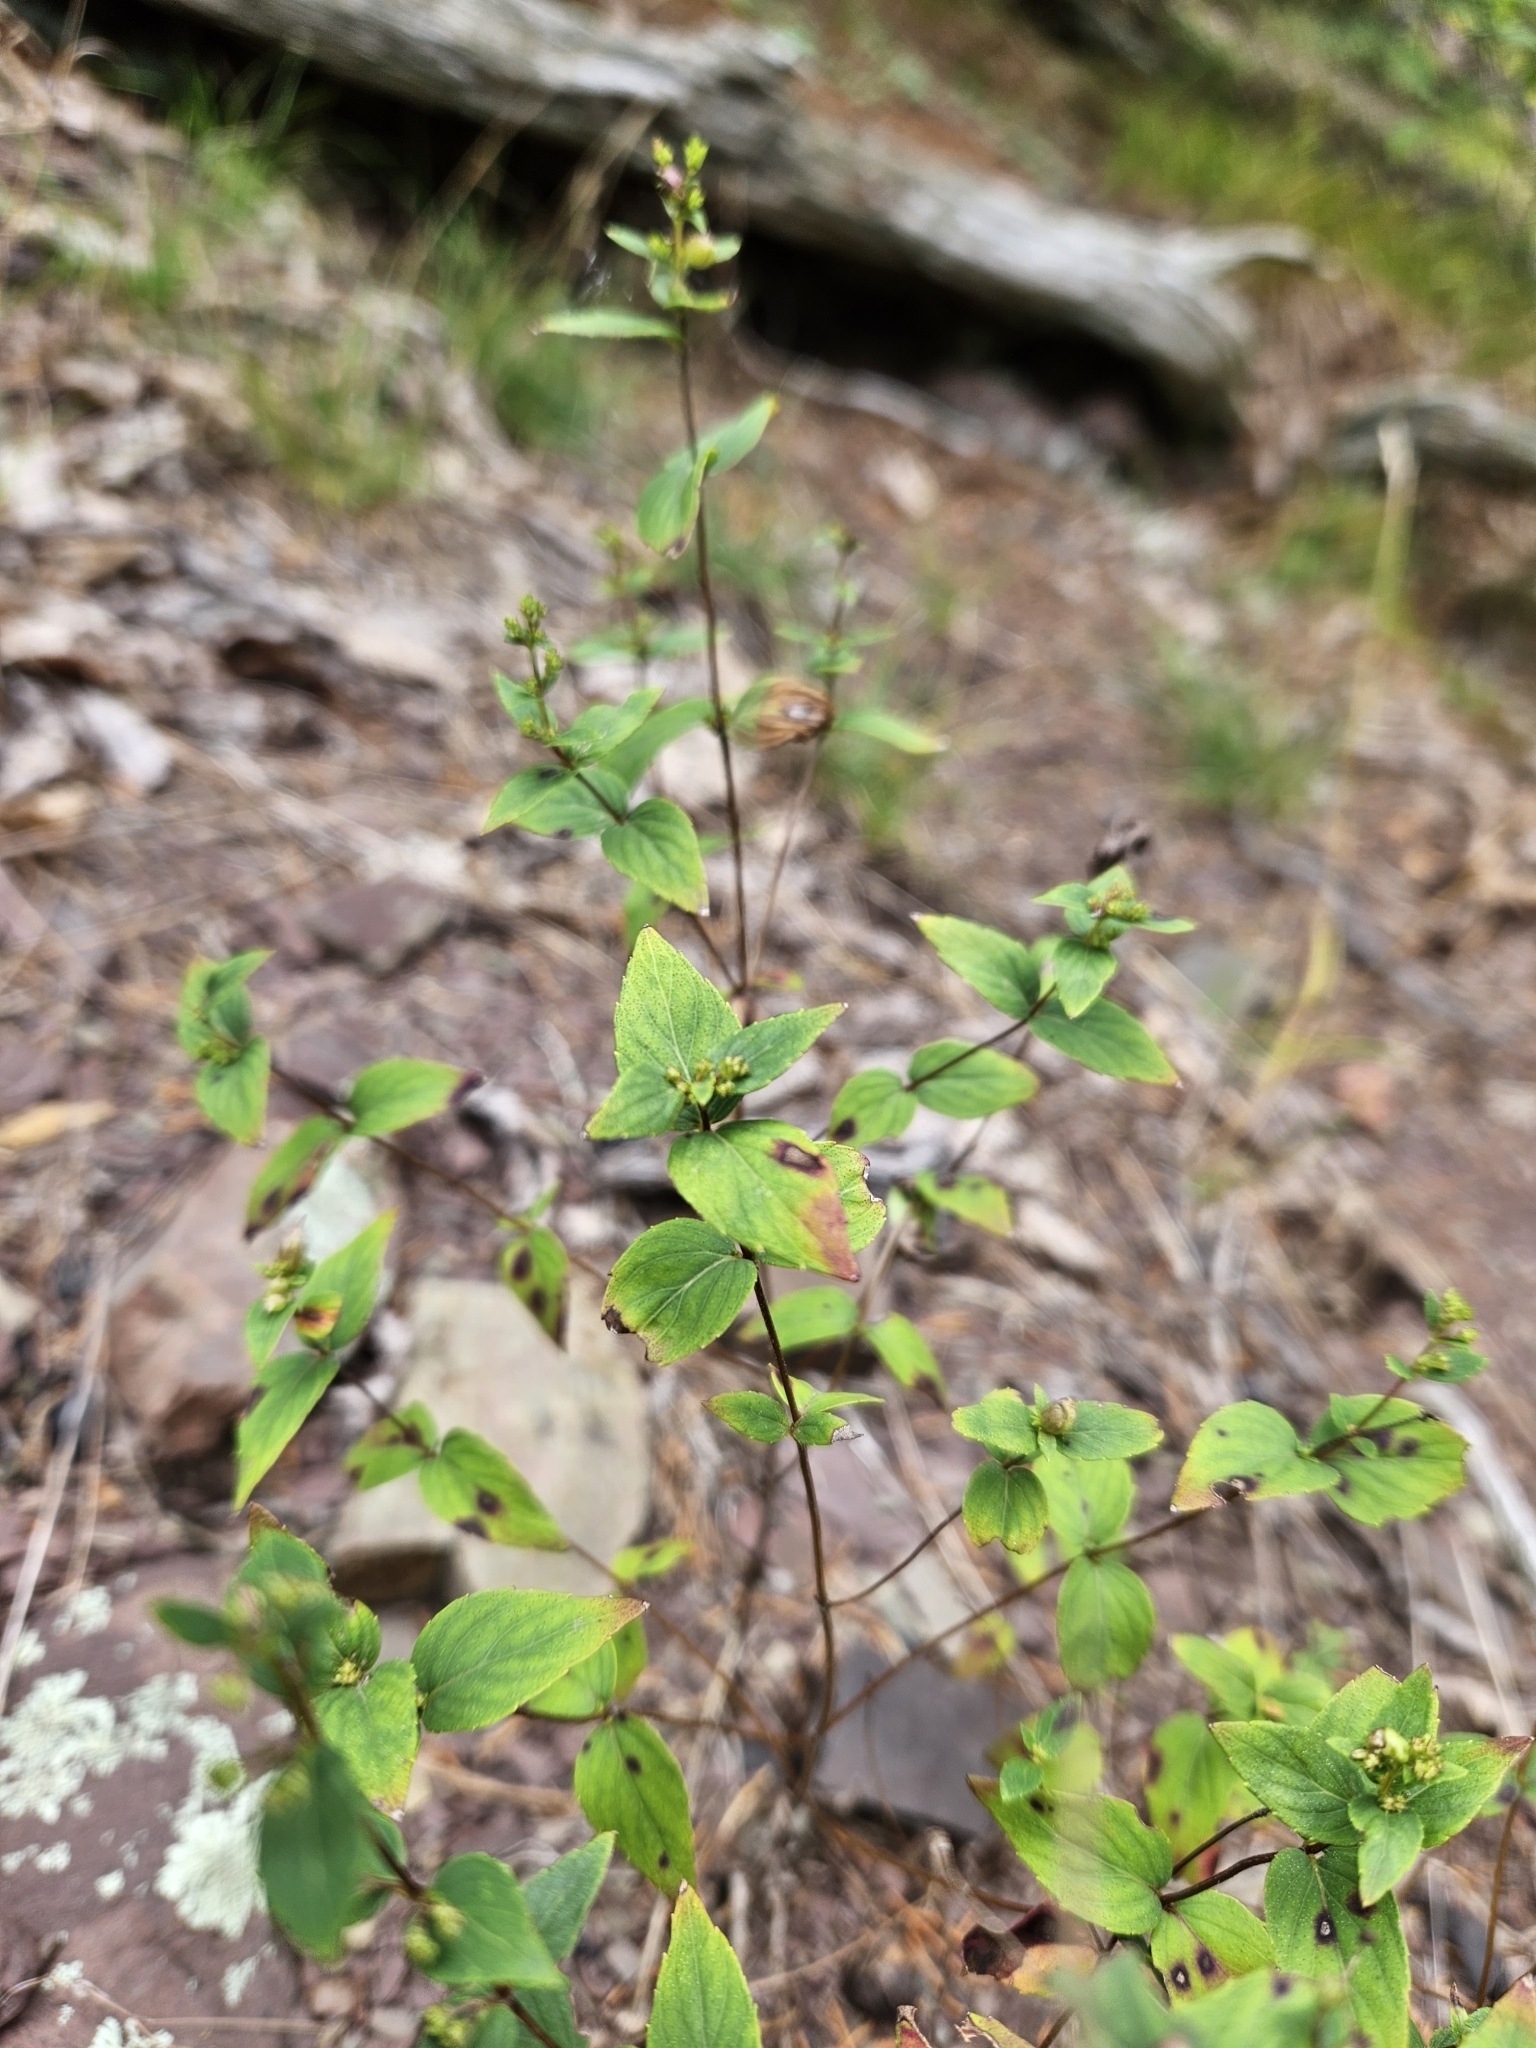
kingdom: Plantae
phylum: Tracheophyta
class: Magnoliopsida
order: Lamiales
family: Lamiaceae
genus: Cunila
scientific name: Cunila origanoides
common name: American dittany
